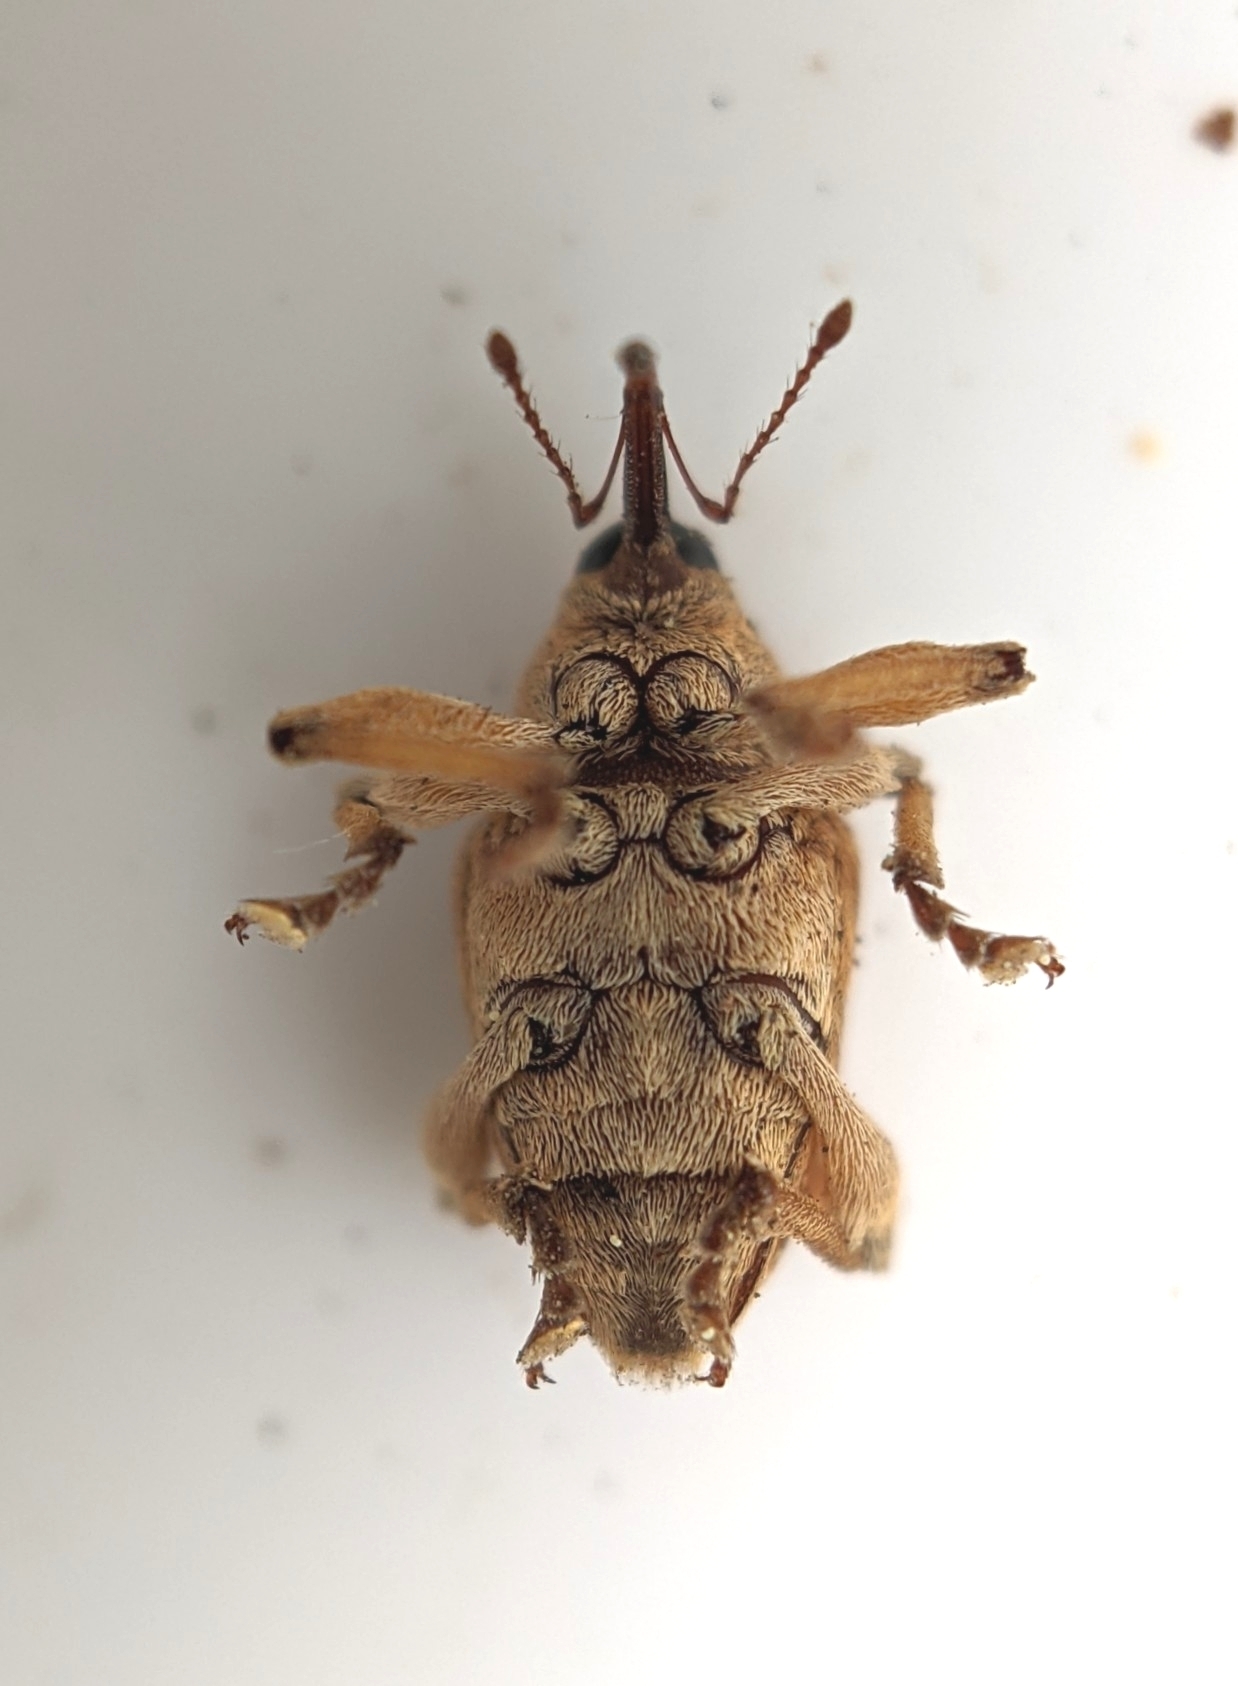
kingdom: Animalia
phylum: Arthropoda
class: Insecta
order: Coleoptera
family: Curculionidae
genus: Curculio
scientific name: Curculio venosus
